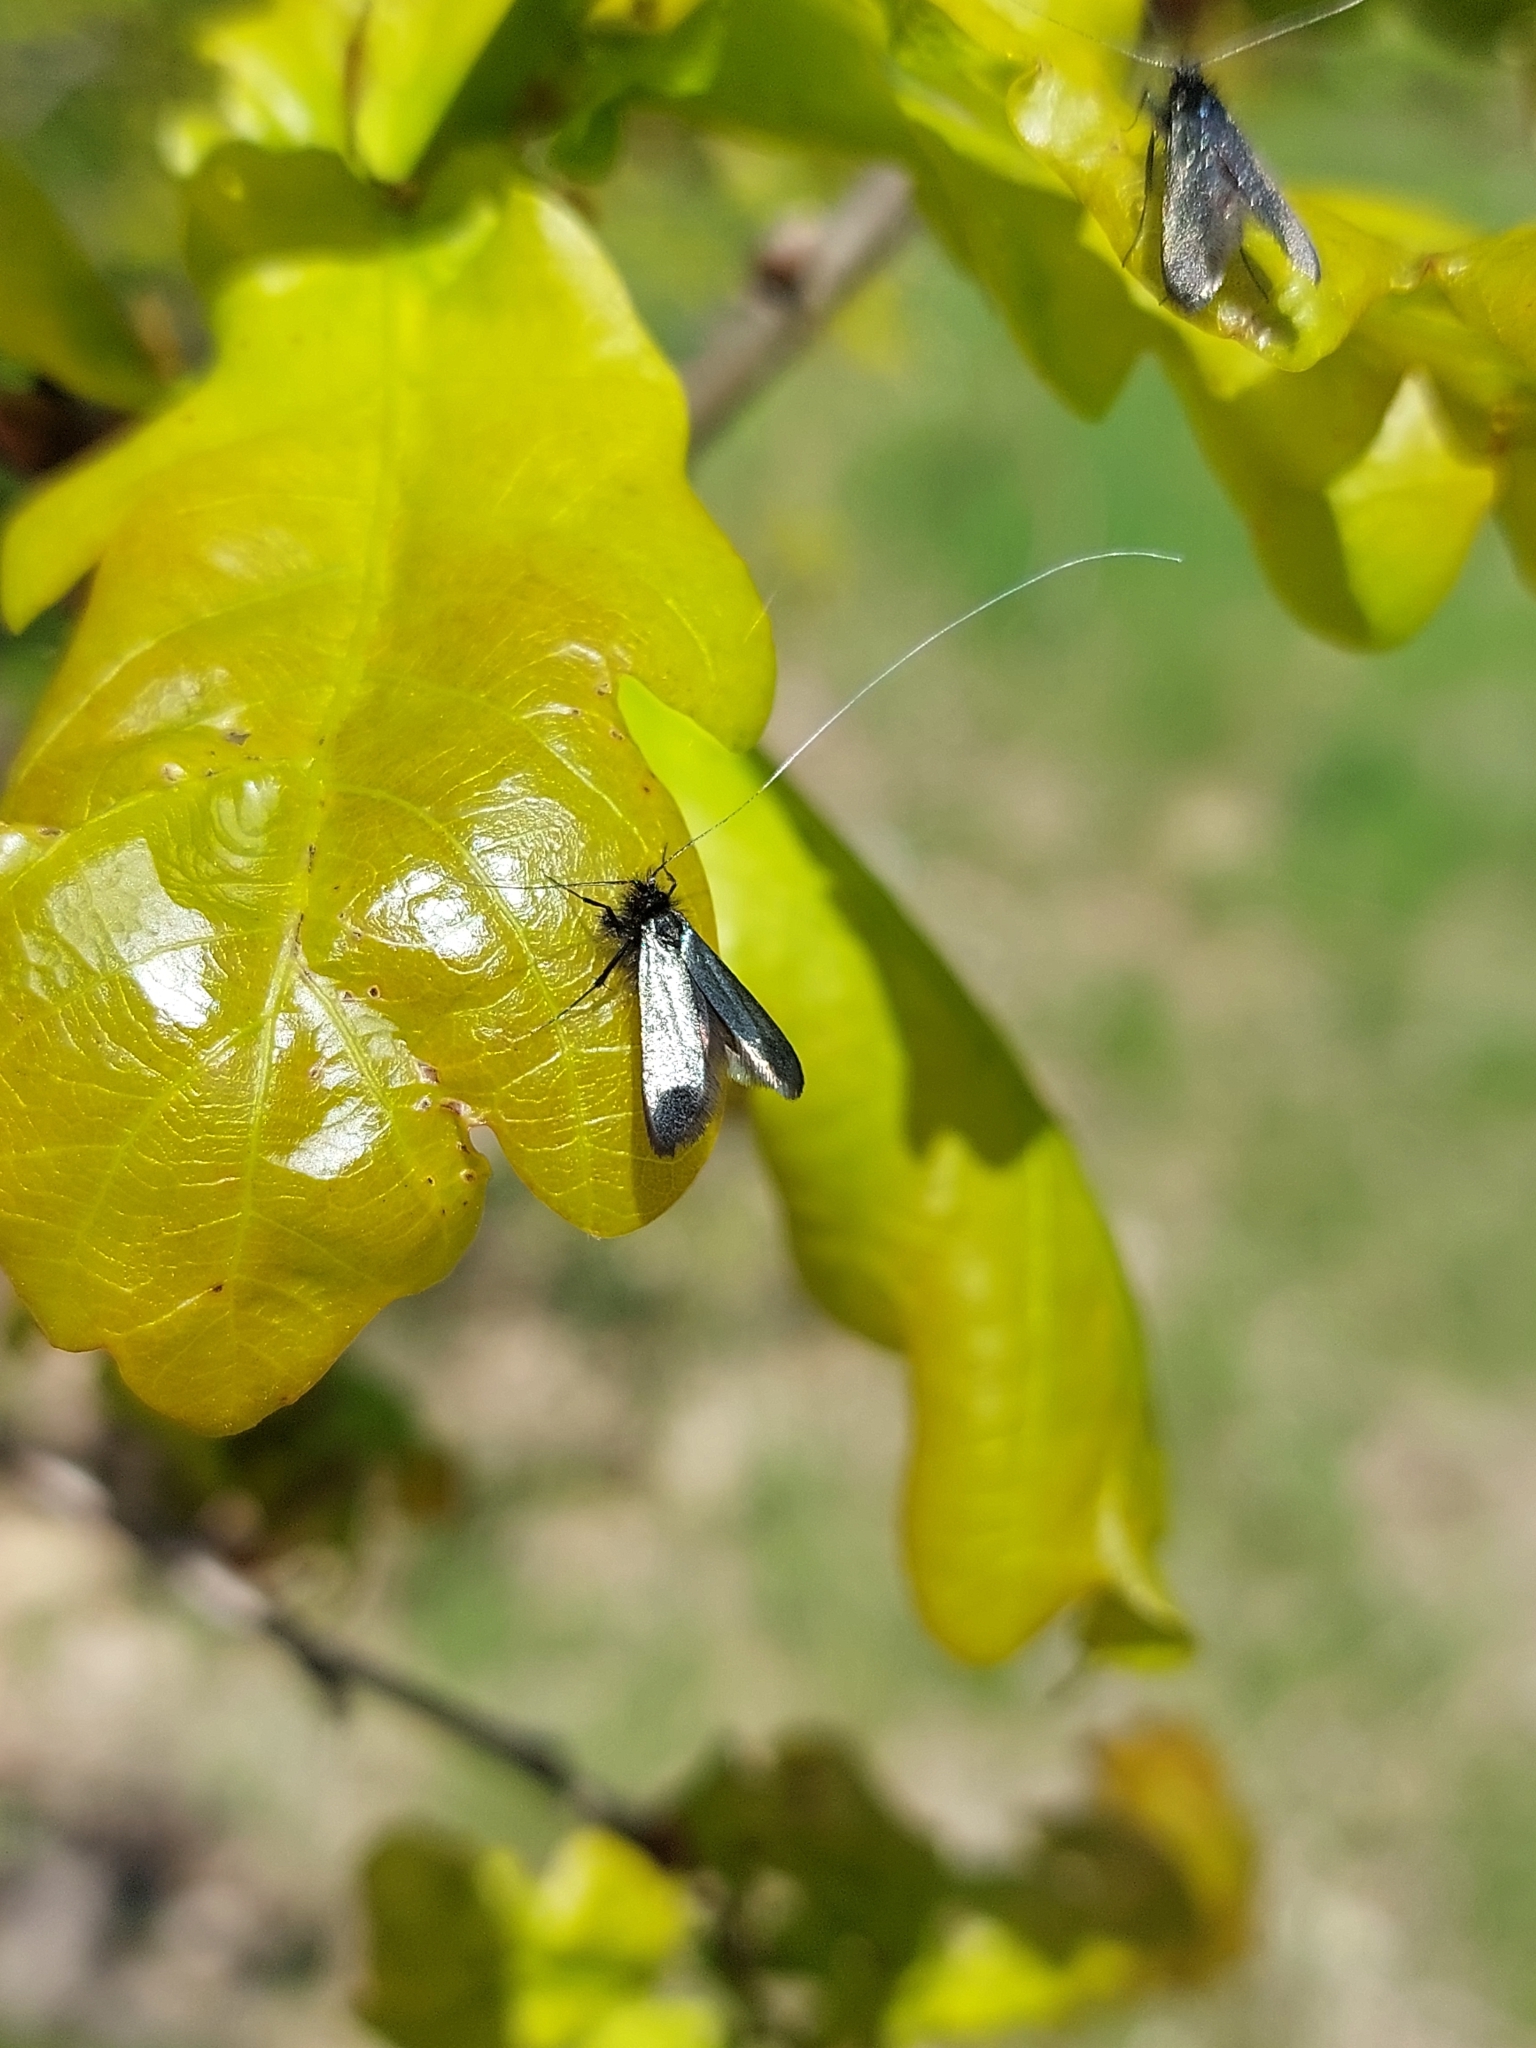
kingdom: Animalia
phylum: Arthropoda
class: Insecta
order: Lepidoptera
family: Adelidae
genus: Adela
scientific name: Adela viridella
